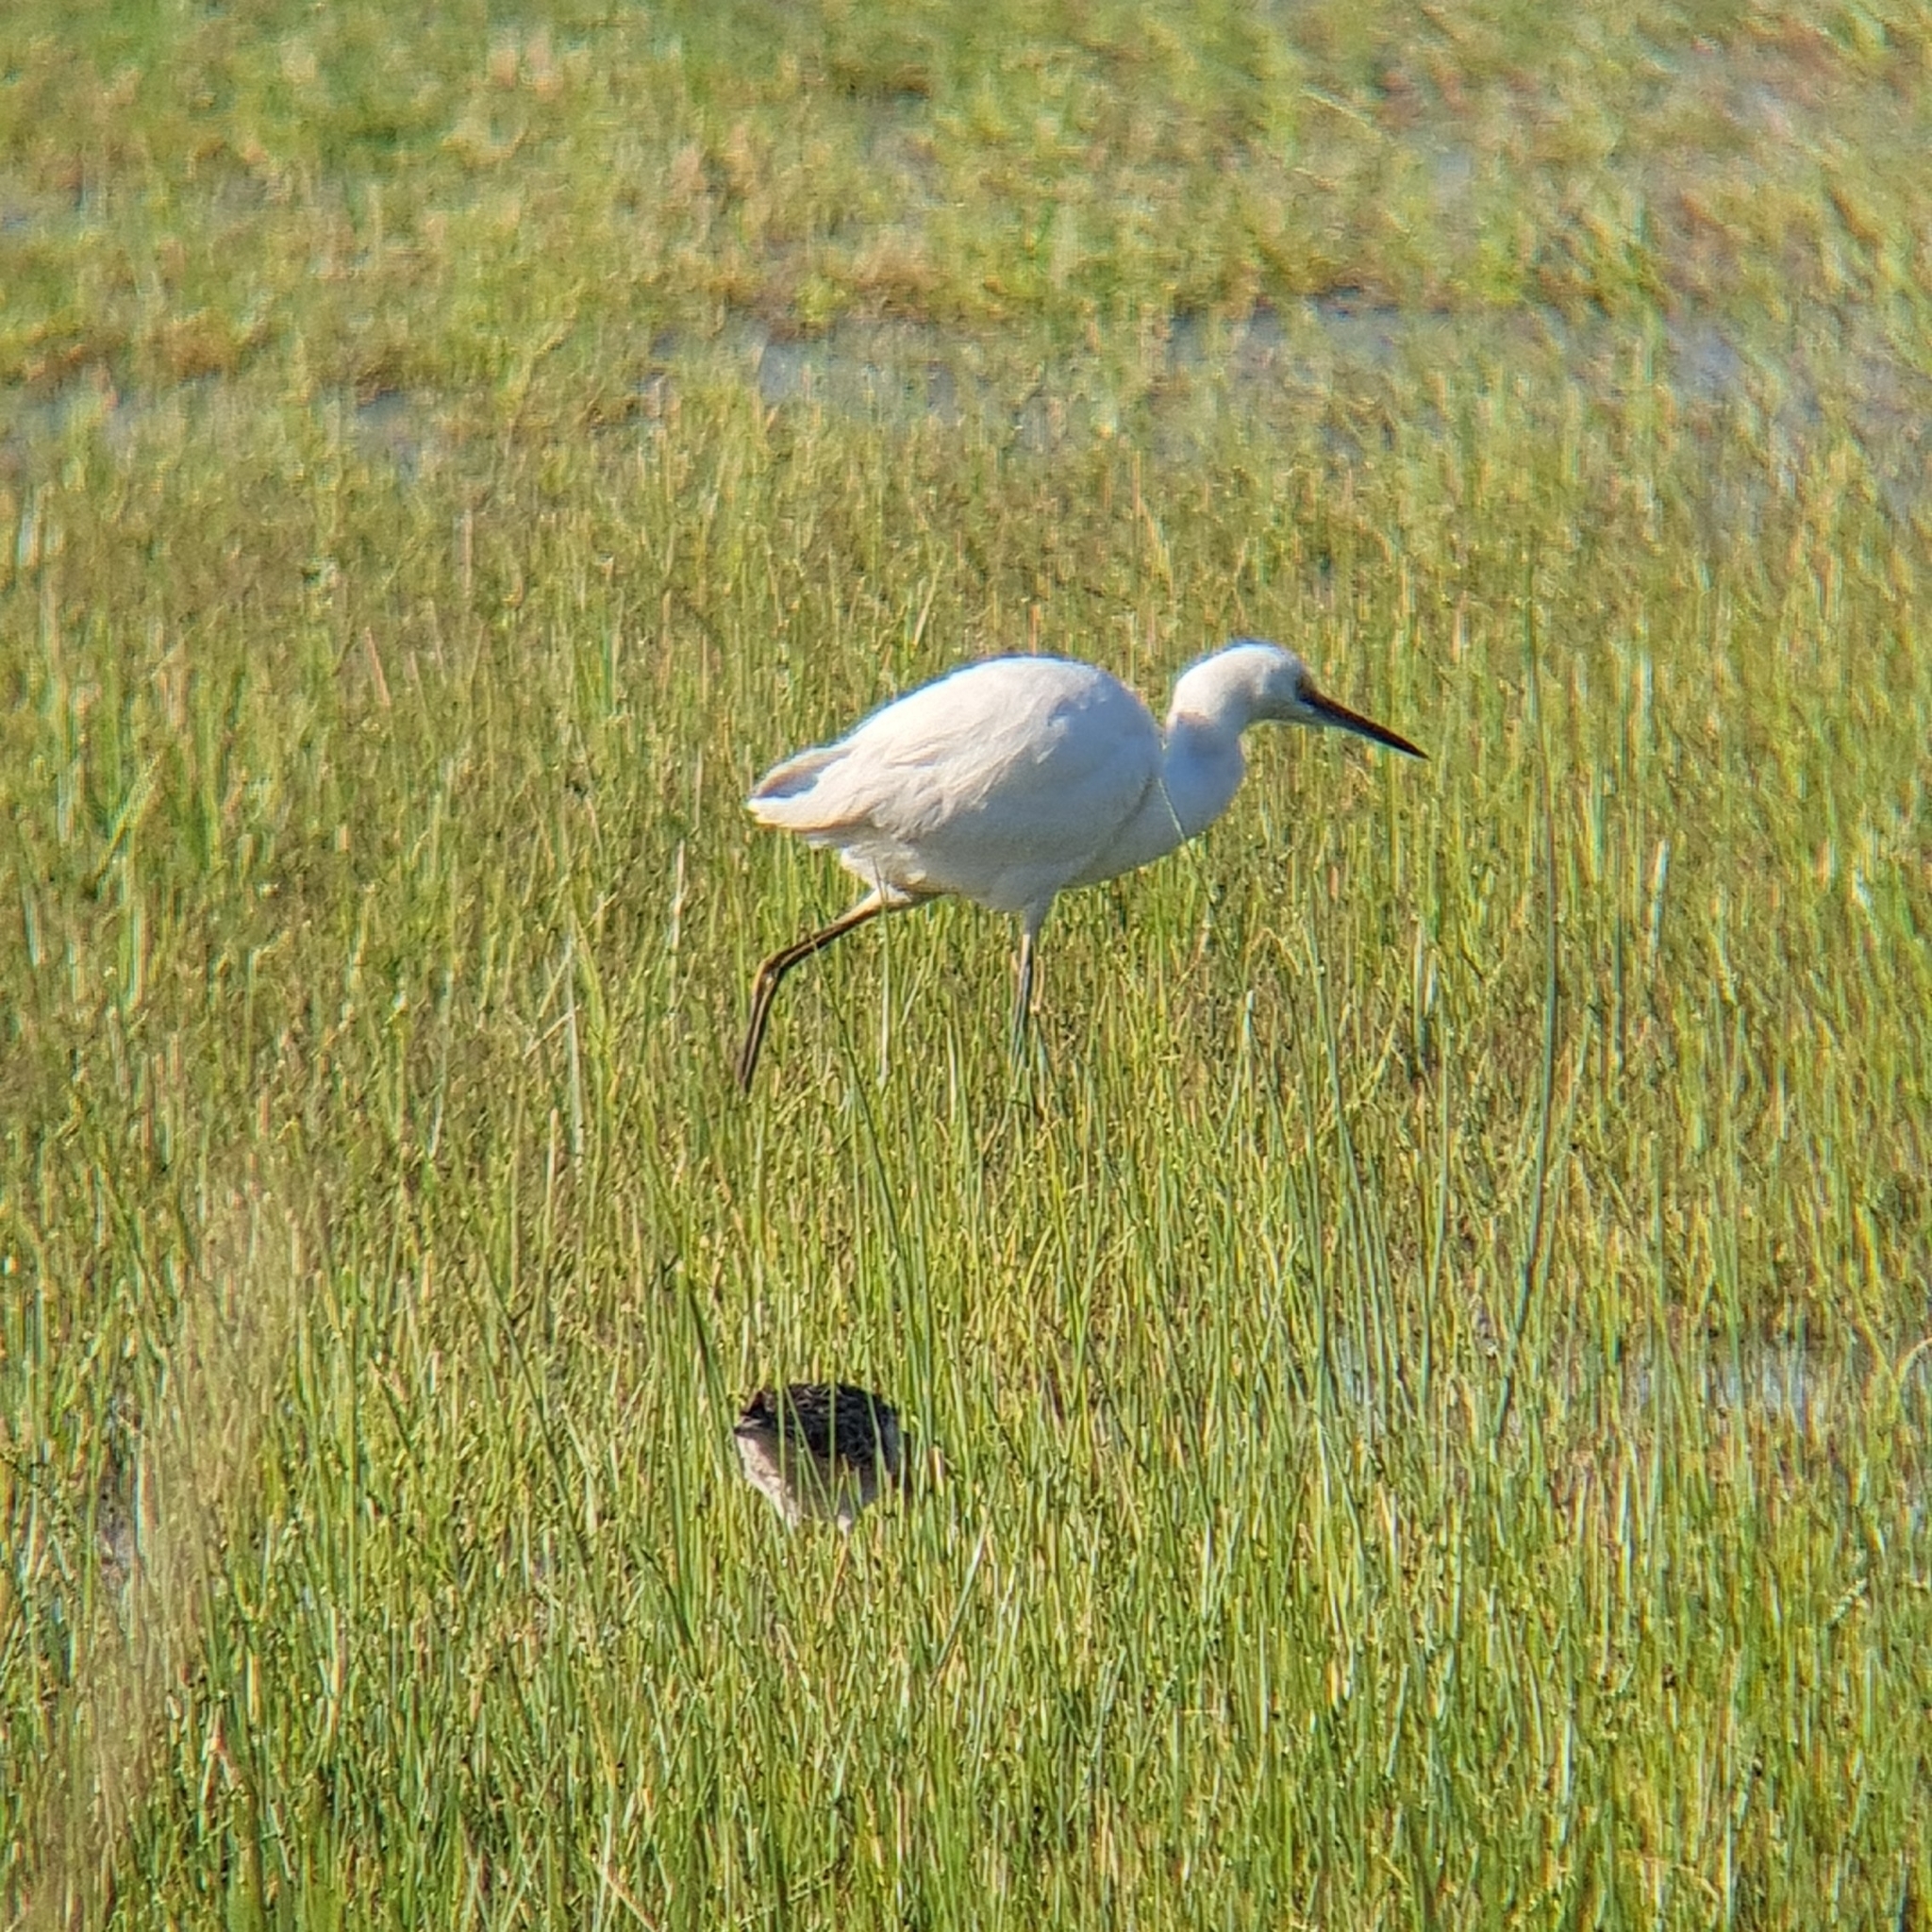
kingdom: Animalia
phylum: Chordata
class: Aves
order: Pelecaniformes
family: Ardeidae
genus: Egretta
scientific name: Egretta garzetta
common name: Little egret
